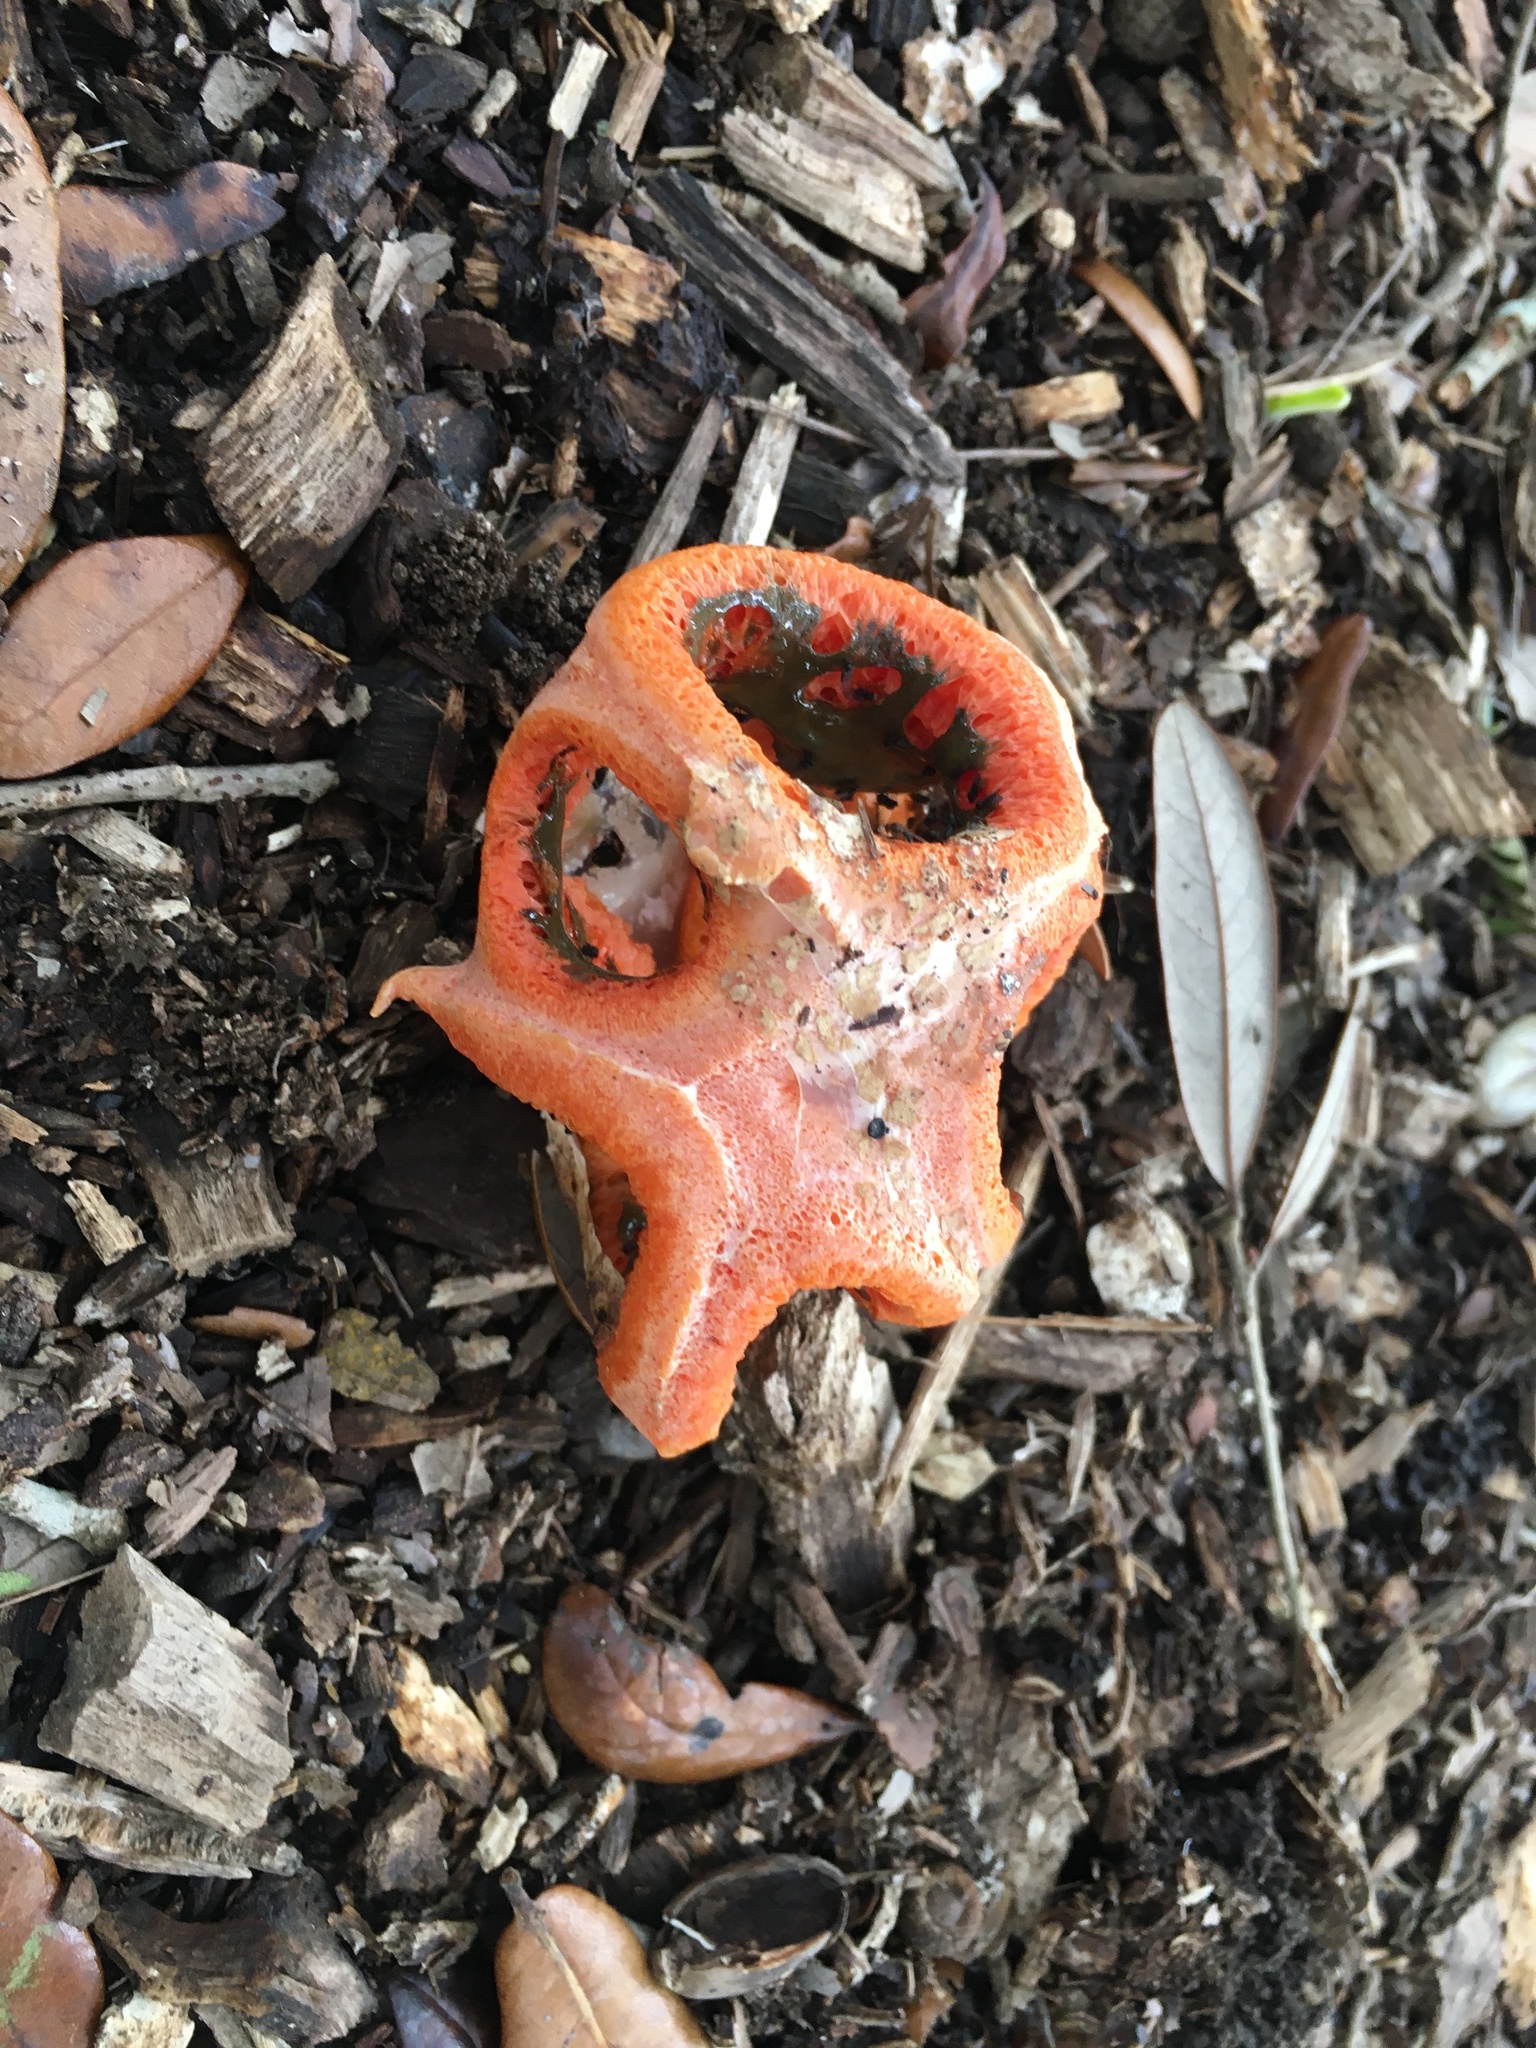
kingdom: Fungi
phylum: Basidiomycota
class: Agaricomycetes
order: Phallales
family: Phallaceae
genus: Clathrus
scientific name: Clathrus columnatus
